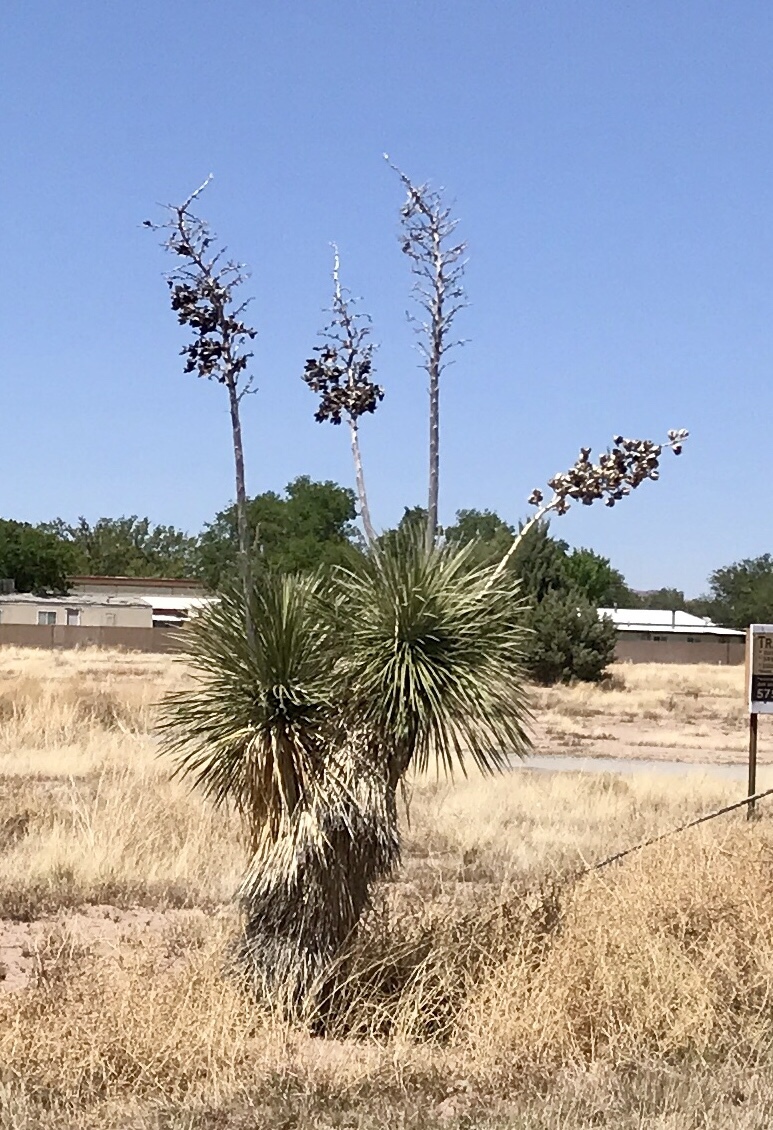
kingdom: Plantae
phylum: Tracheophyta
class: Liliopsida
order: Asparagales
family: Asparagaceae
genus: Yucca
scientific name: Yucca elata
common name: Palmella
